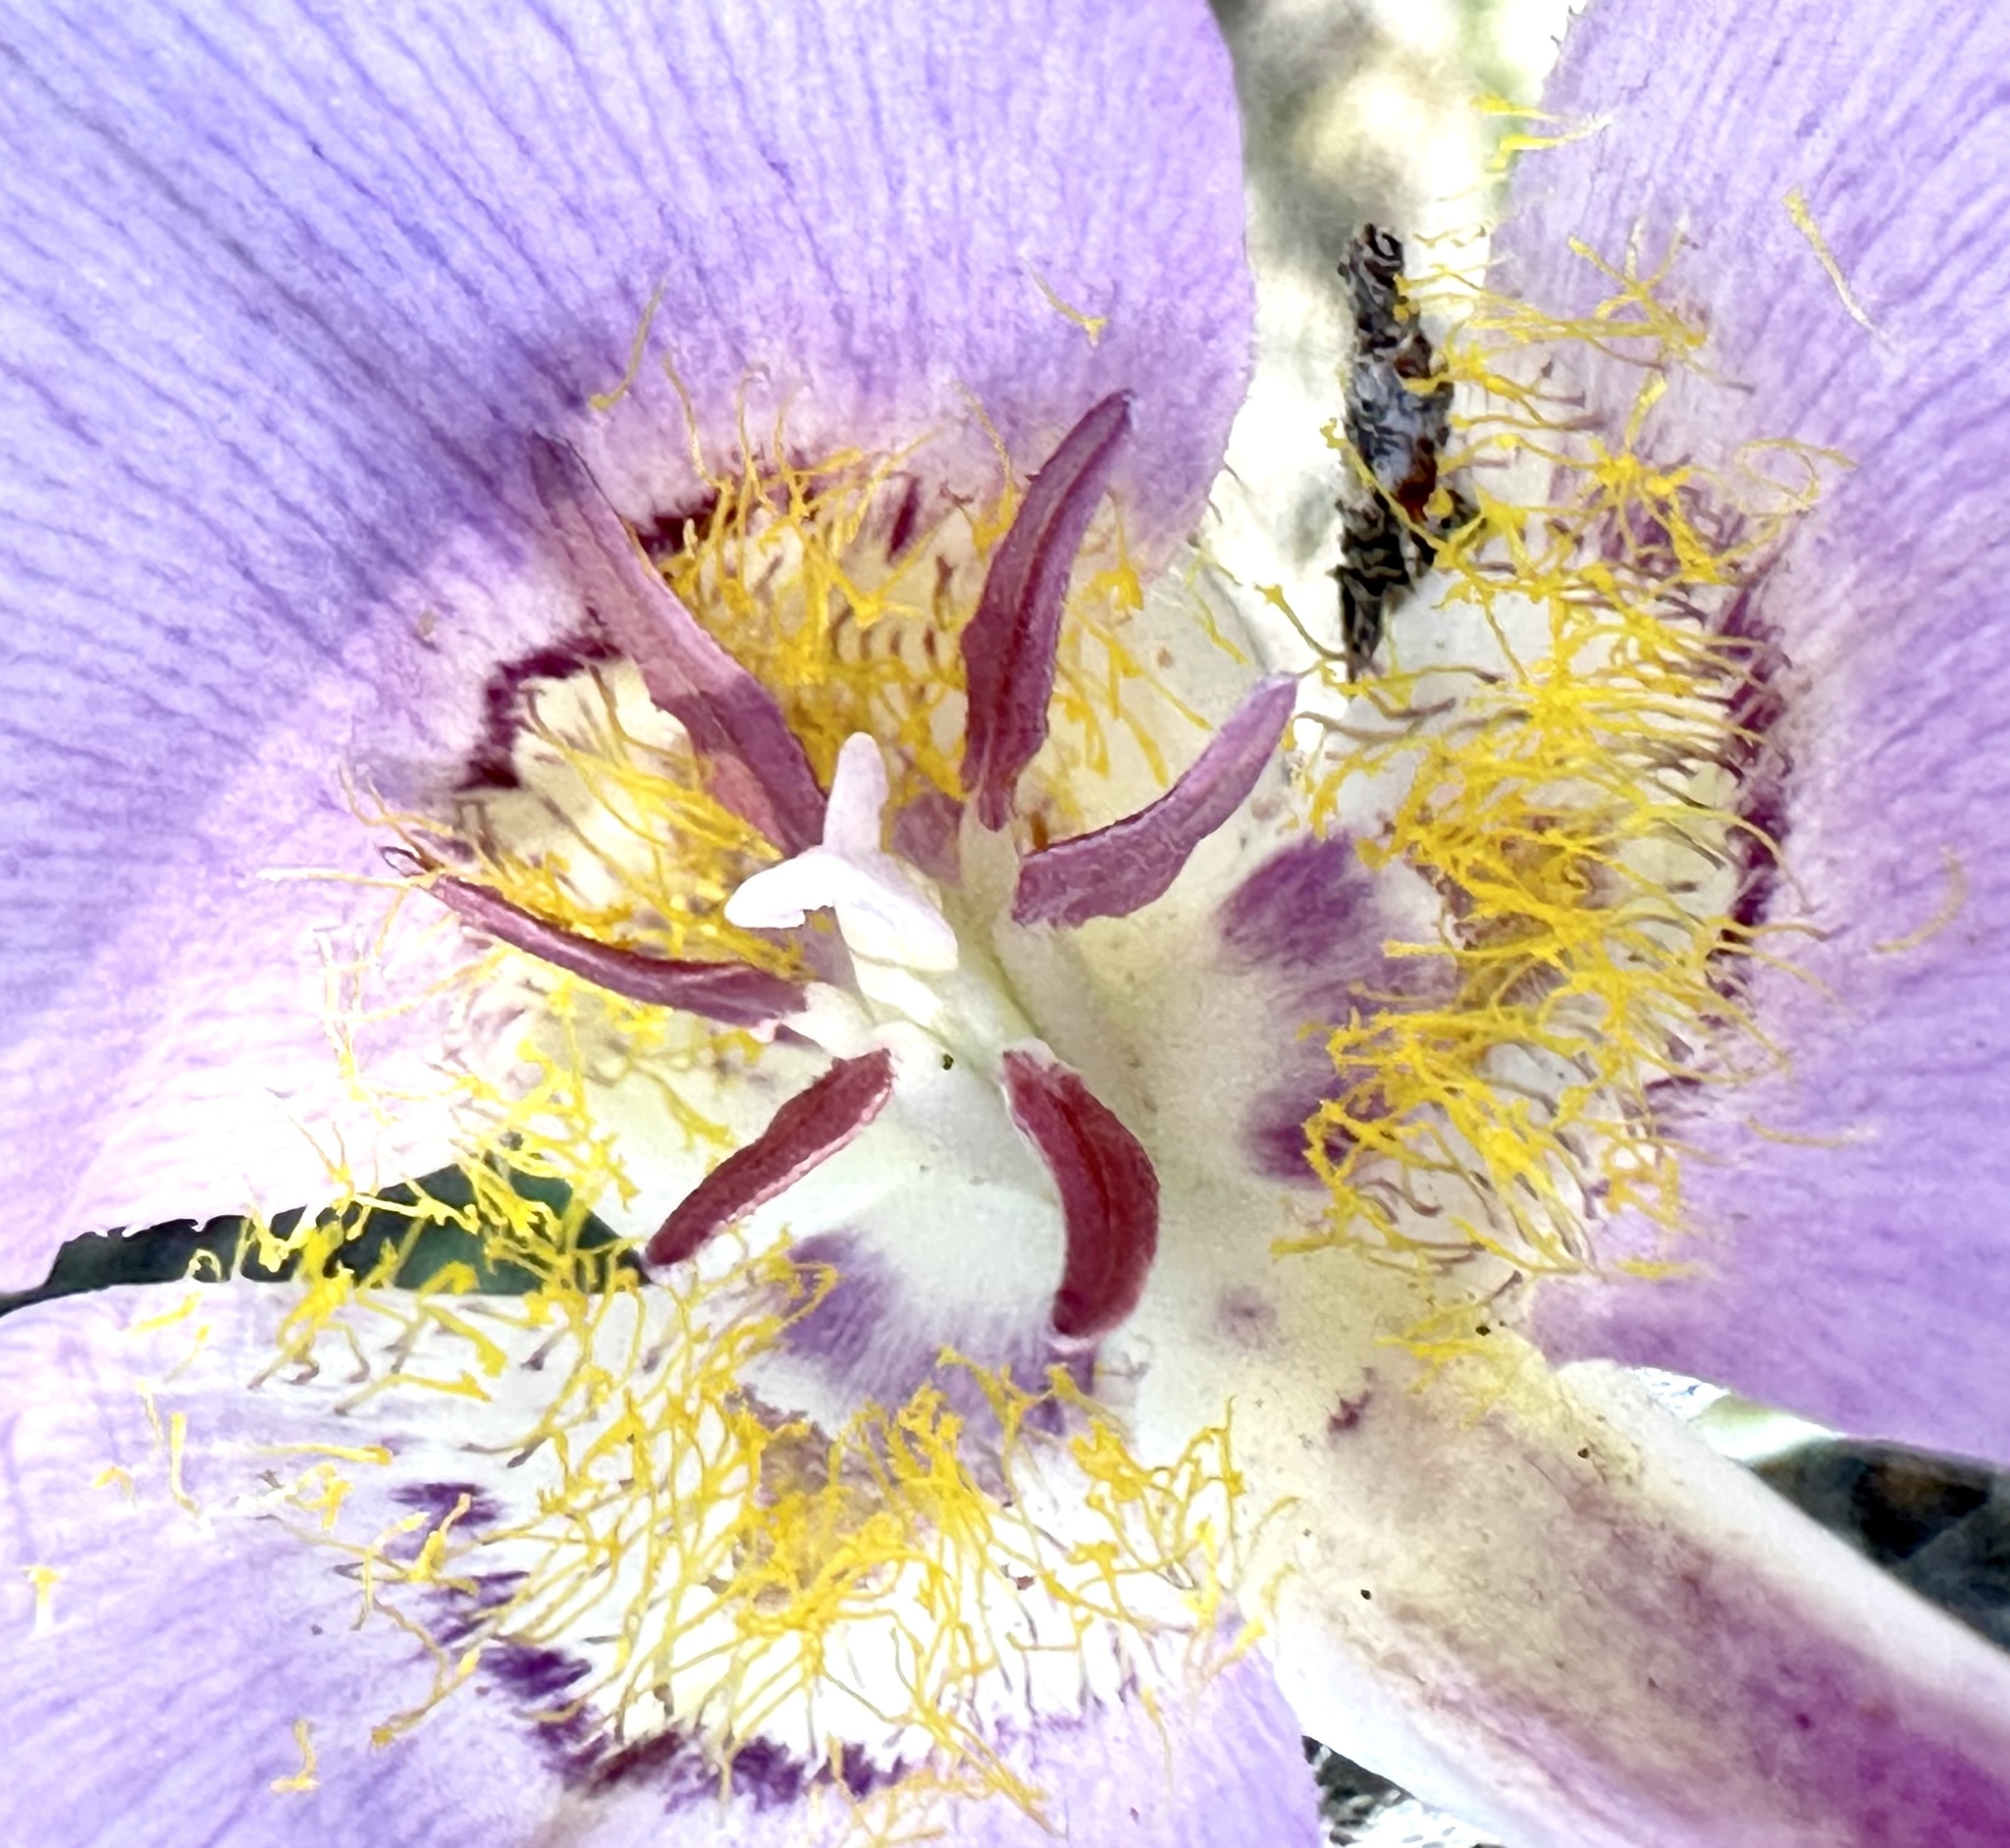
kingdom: Plantae
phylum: Tracheophyta
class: Liliopsida
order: Liliales
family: Liliaceae
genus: Calochortus
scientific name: Calochortus macrocarpus
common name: Green-band mariposa lily
